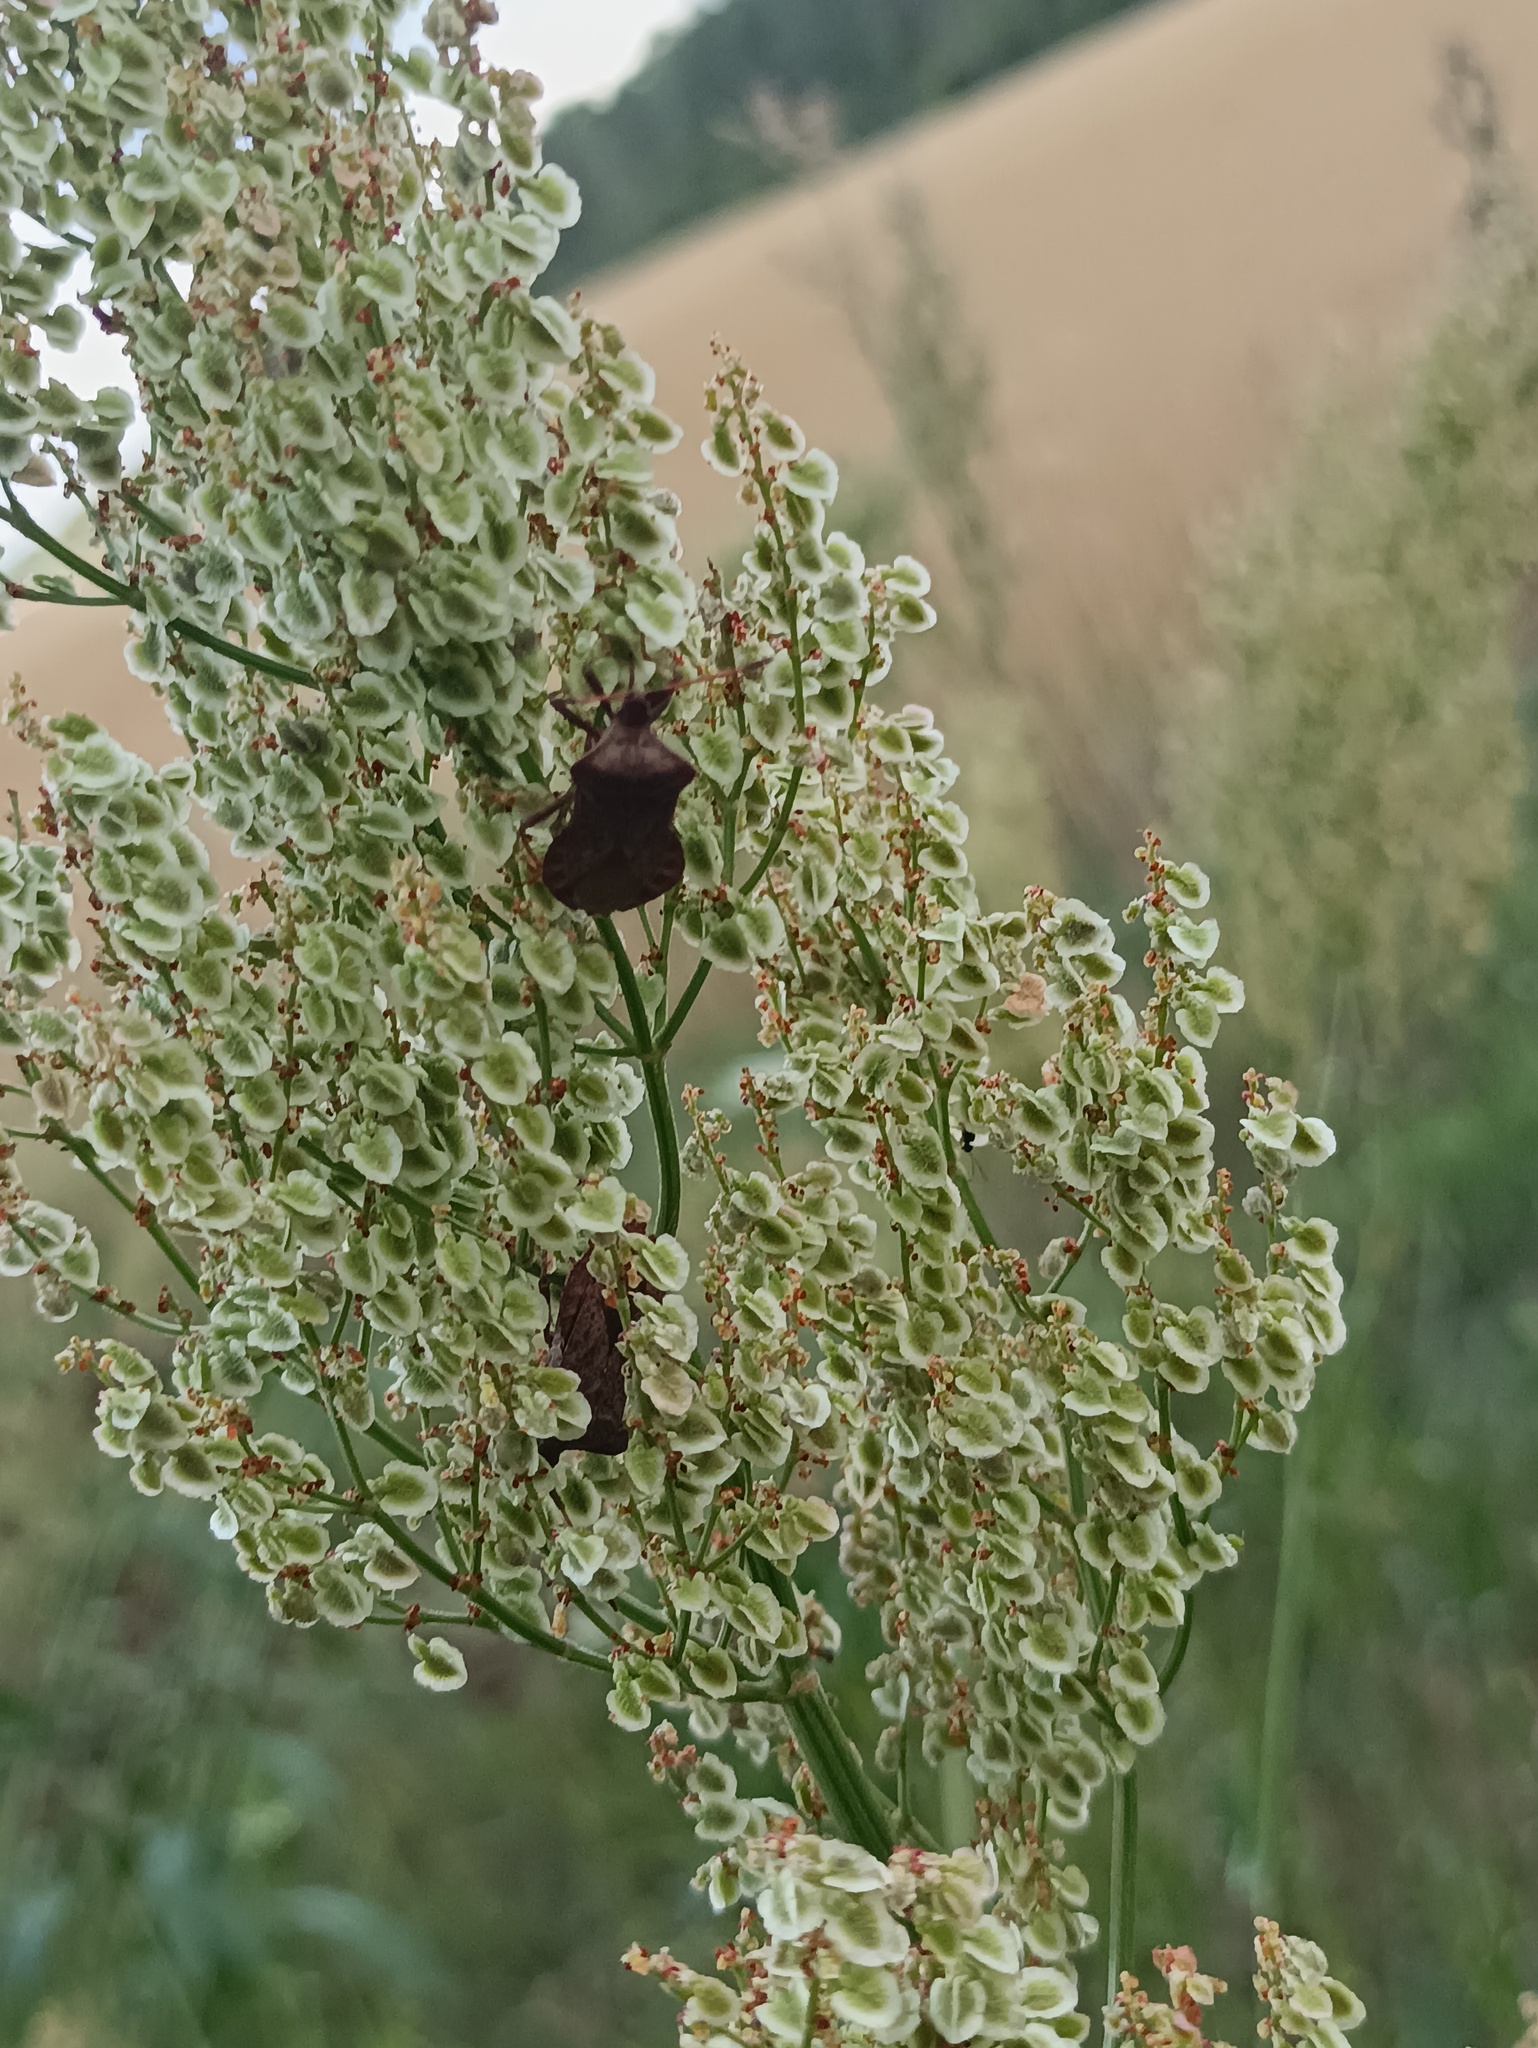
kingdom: Animalia
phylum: Arthropoda
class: Insecta
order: Hemiptera
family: Coreidae
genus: Coreus
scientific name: Coreus marginatus
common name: Dock bug
